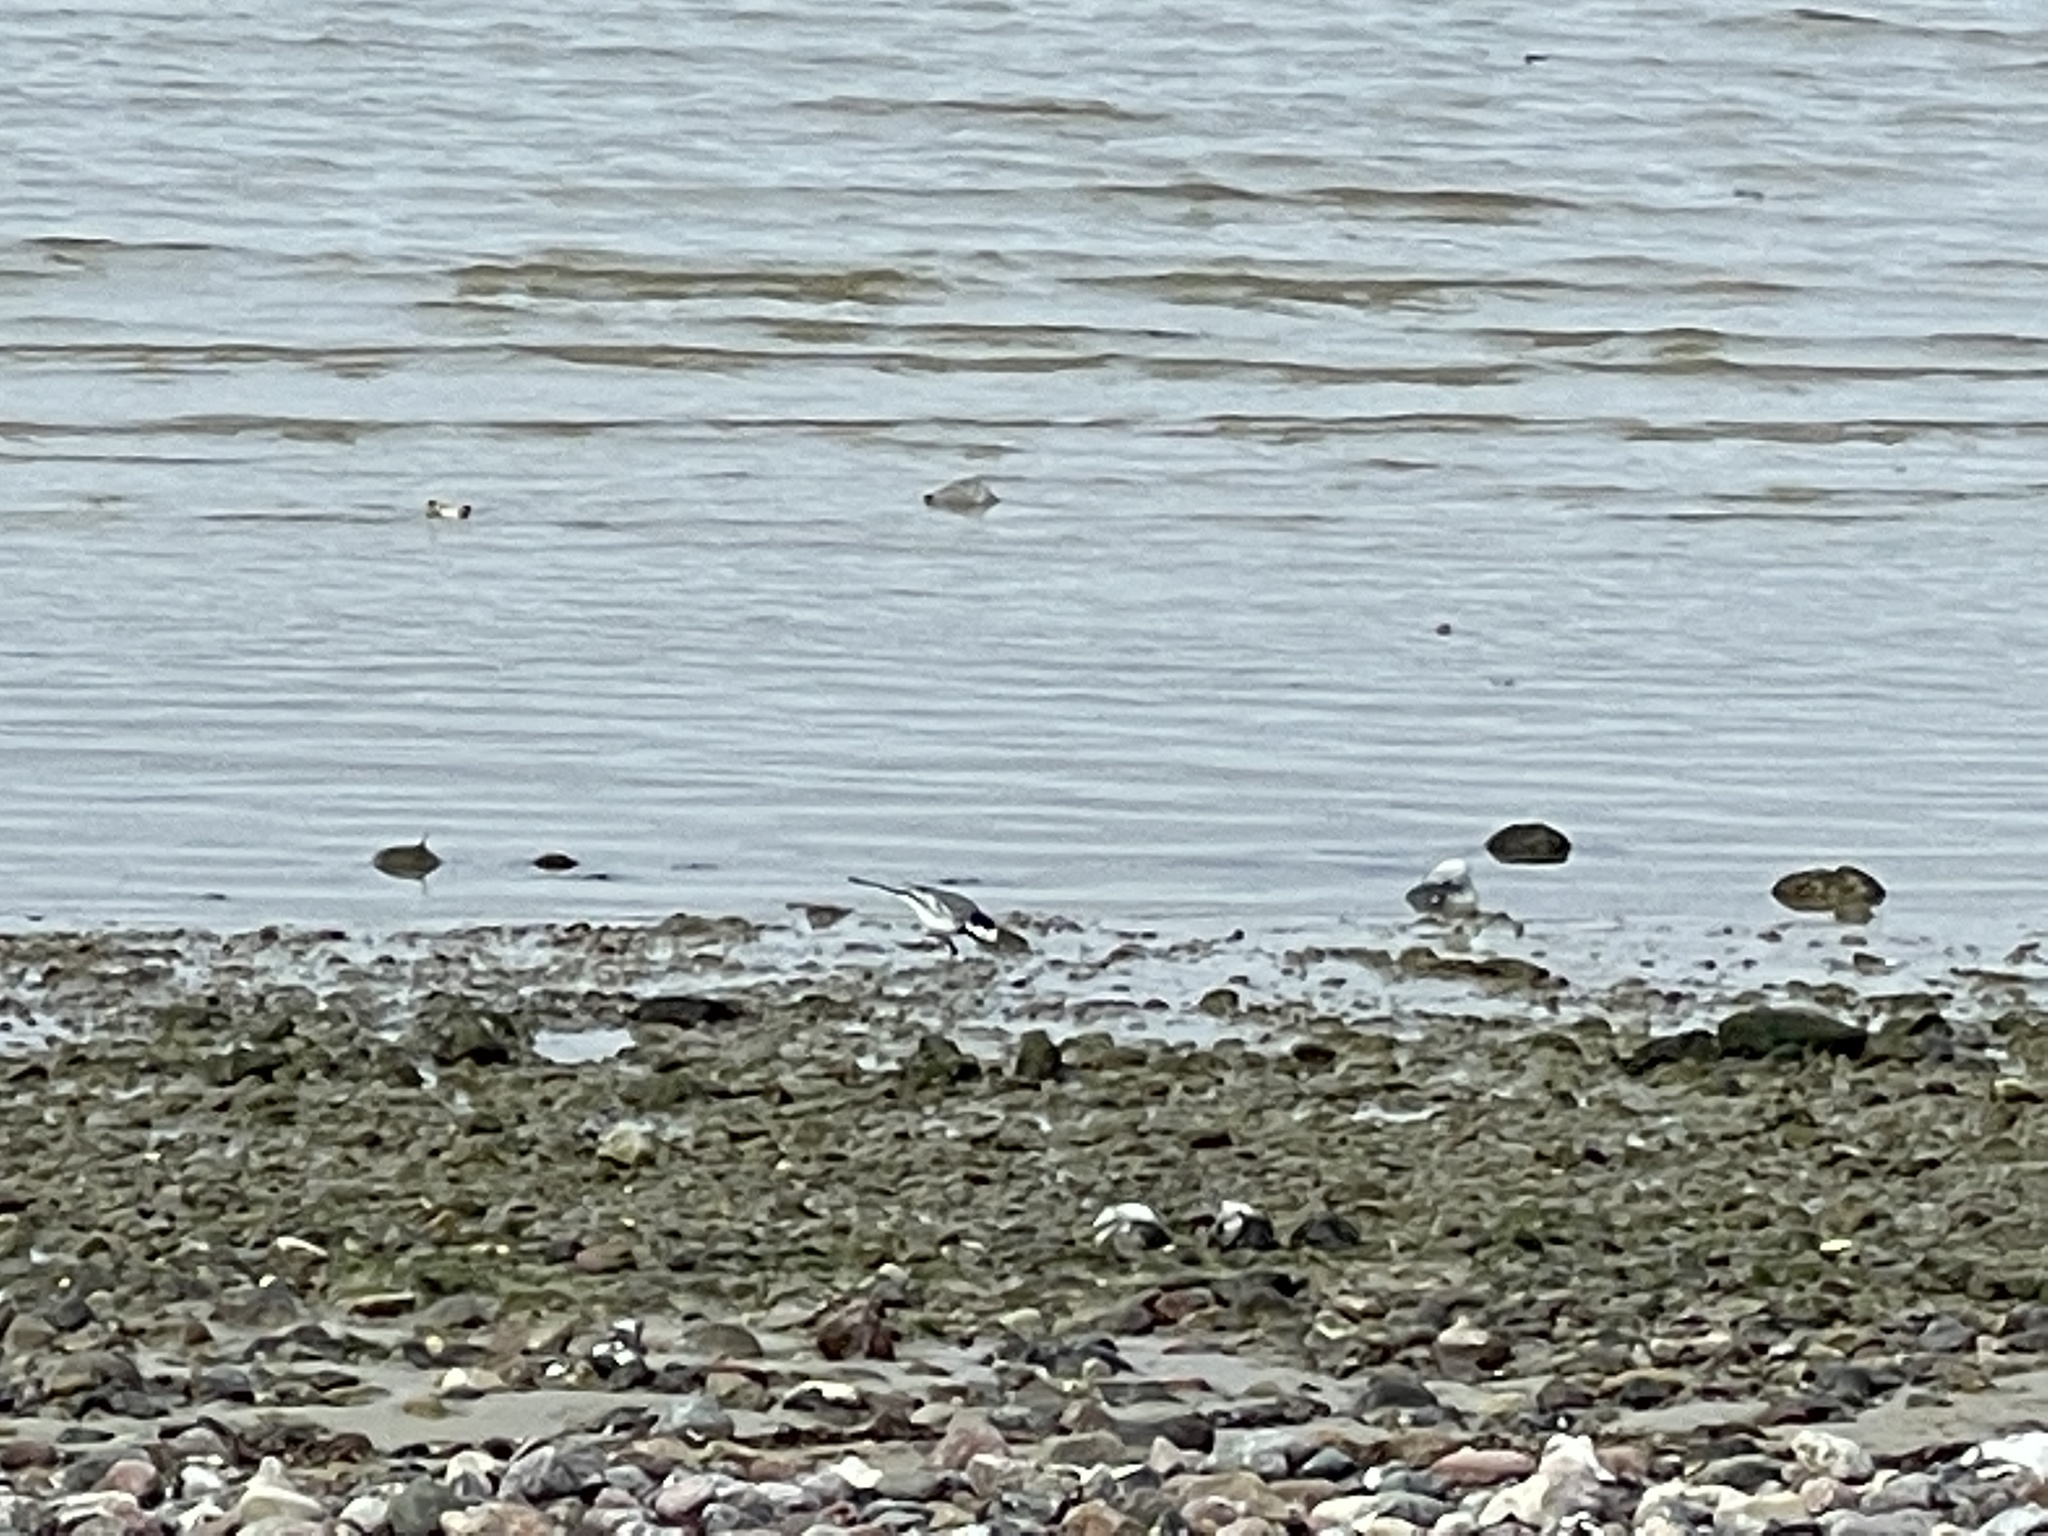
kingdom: Animalia
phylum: Chordata
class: Aves
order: Passeriformes
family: Motacillidae
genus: Motacilla
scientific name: Motacilla alba
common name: White wagtail
